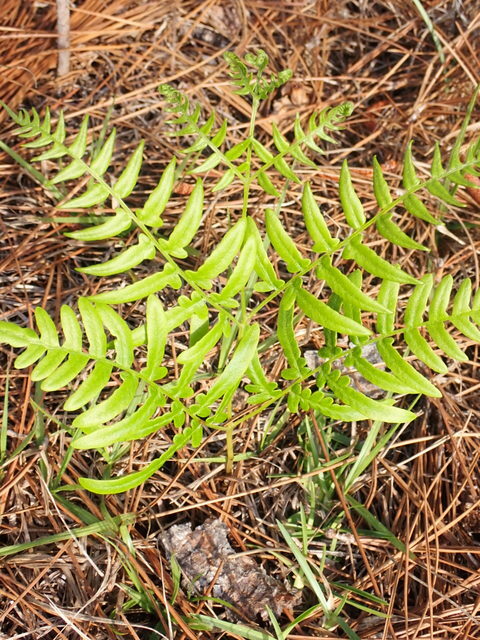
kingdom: Plantae
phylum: Tracheophyta
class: Polypodiopsida
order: Polypodiales
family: Dennstaedtiaceae
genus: Pteridium
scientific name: Pteridium
